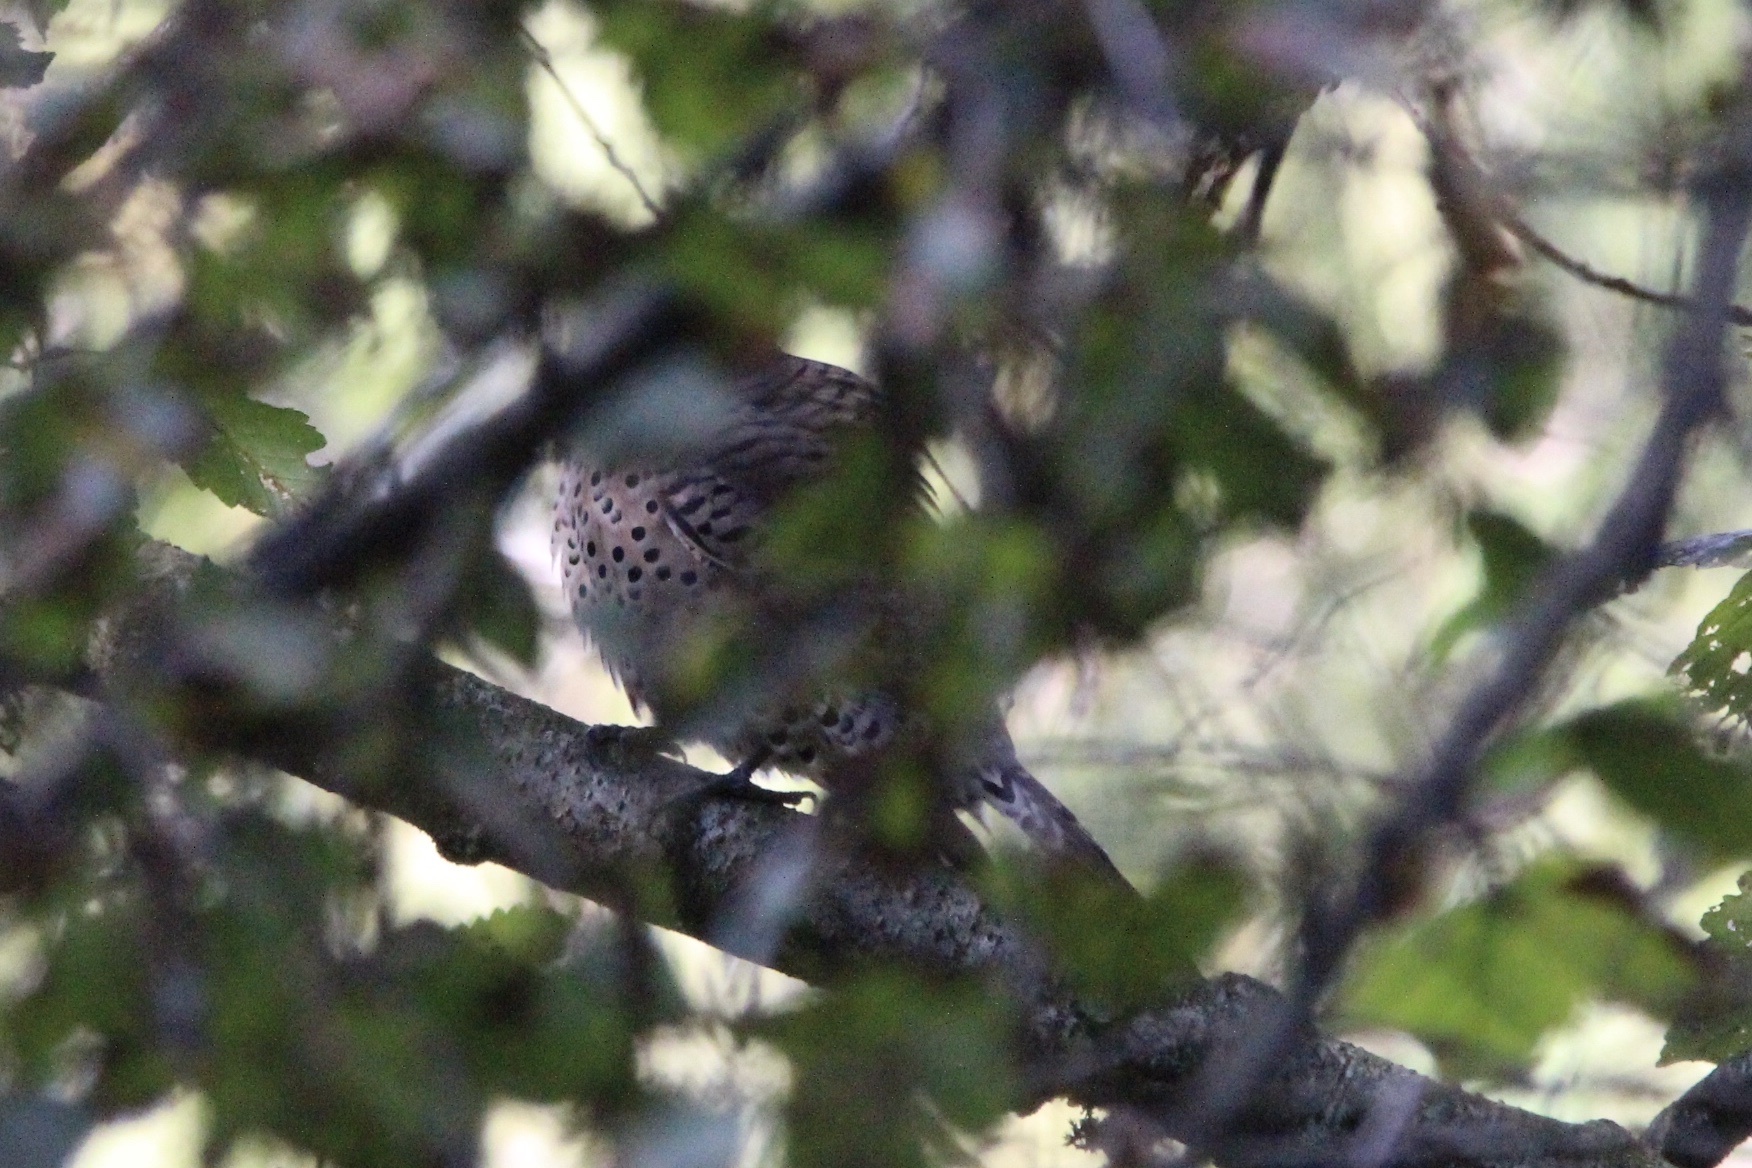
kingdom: Animalia
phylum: Chordata
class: Aves
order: Piciformes
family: Picidae
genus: Colaptes
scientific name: Colaptes auratus
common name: Northern flicker
